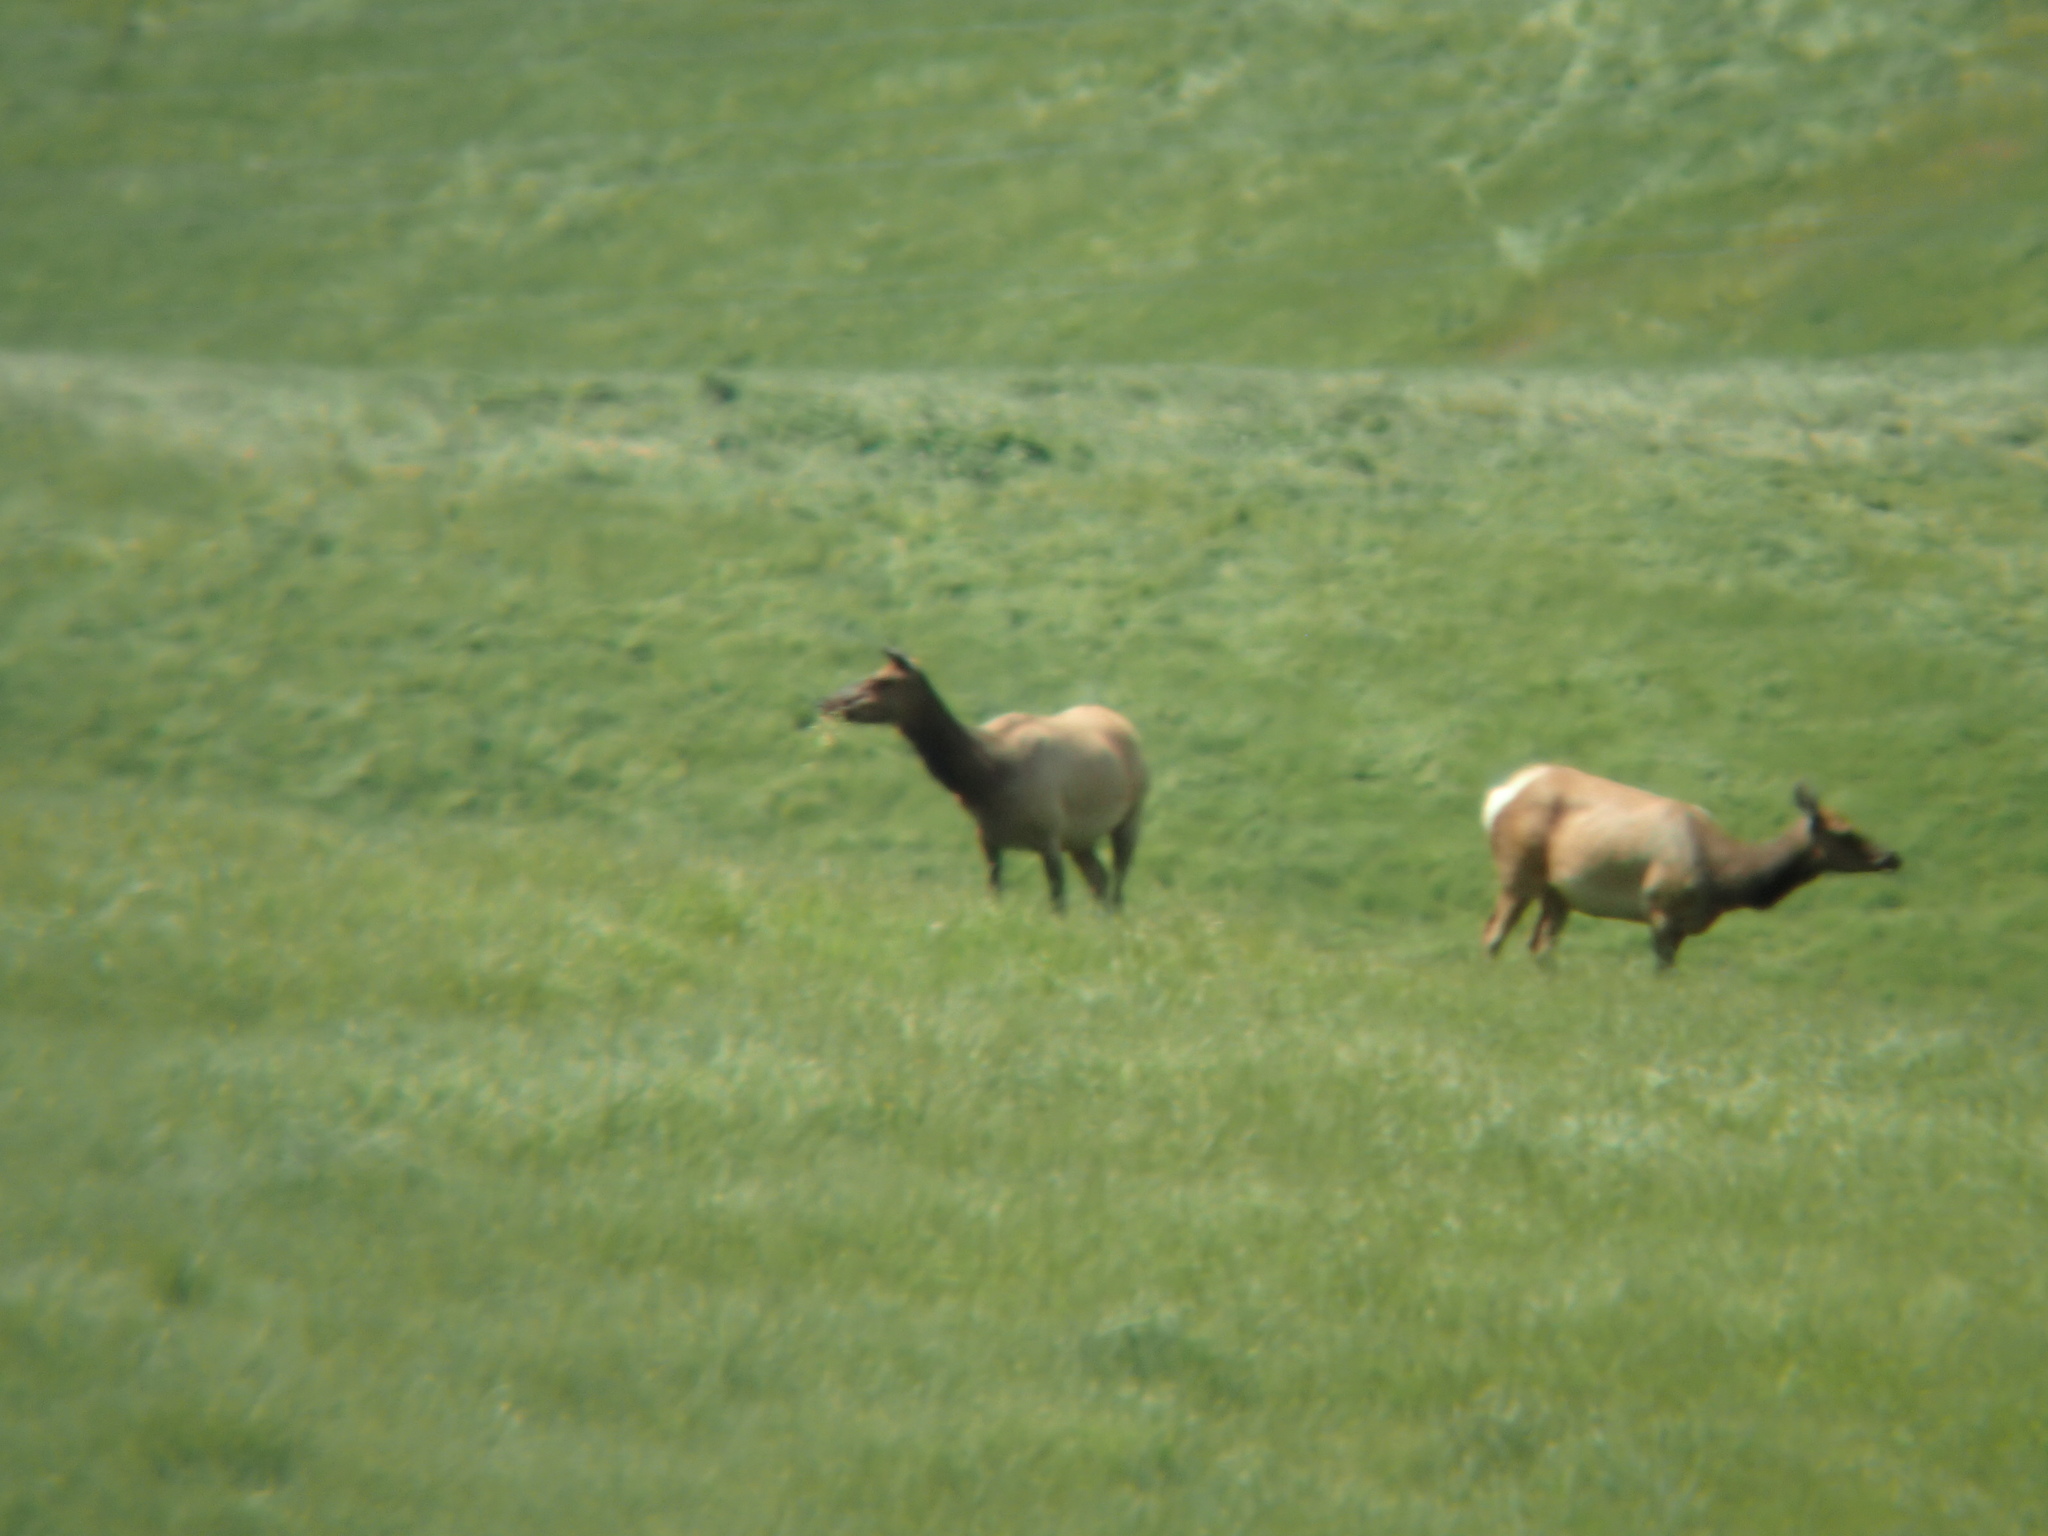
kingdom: Animalia
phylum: Chordata
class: Mammalia
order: Artiodactyla
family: Cervidae
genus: Cervus
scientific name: Cervus elaphus
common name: Red deer
